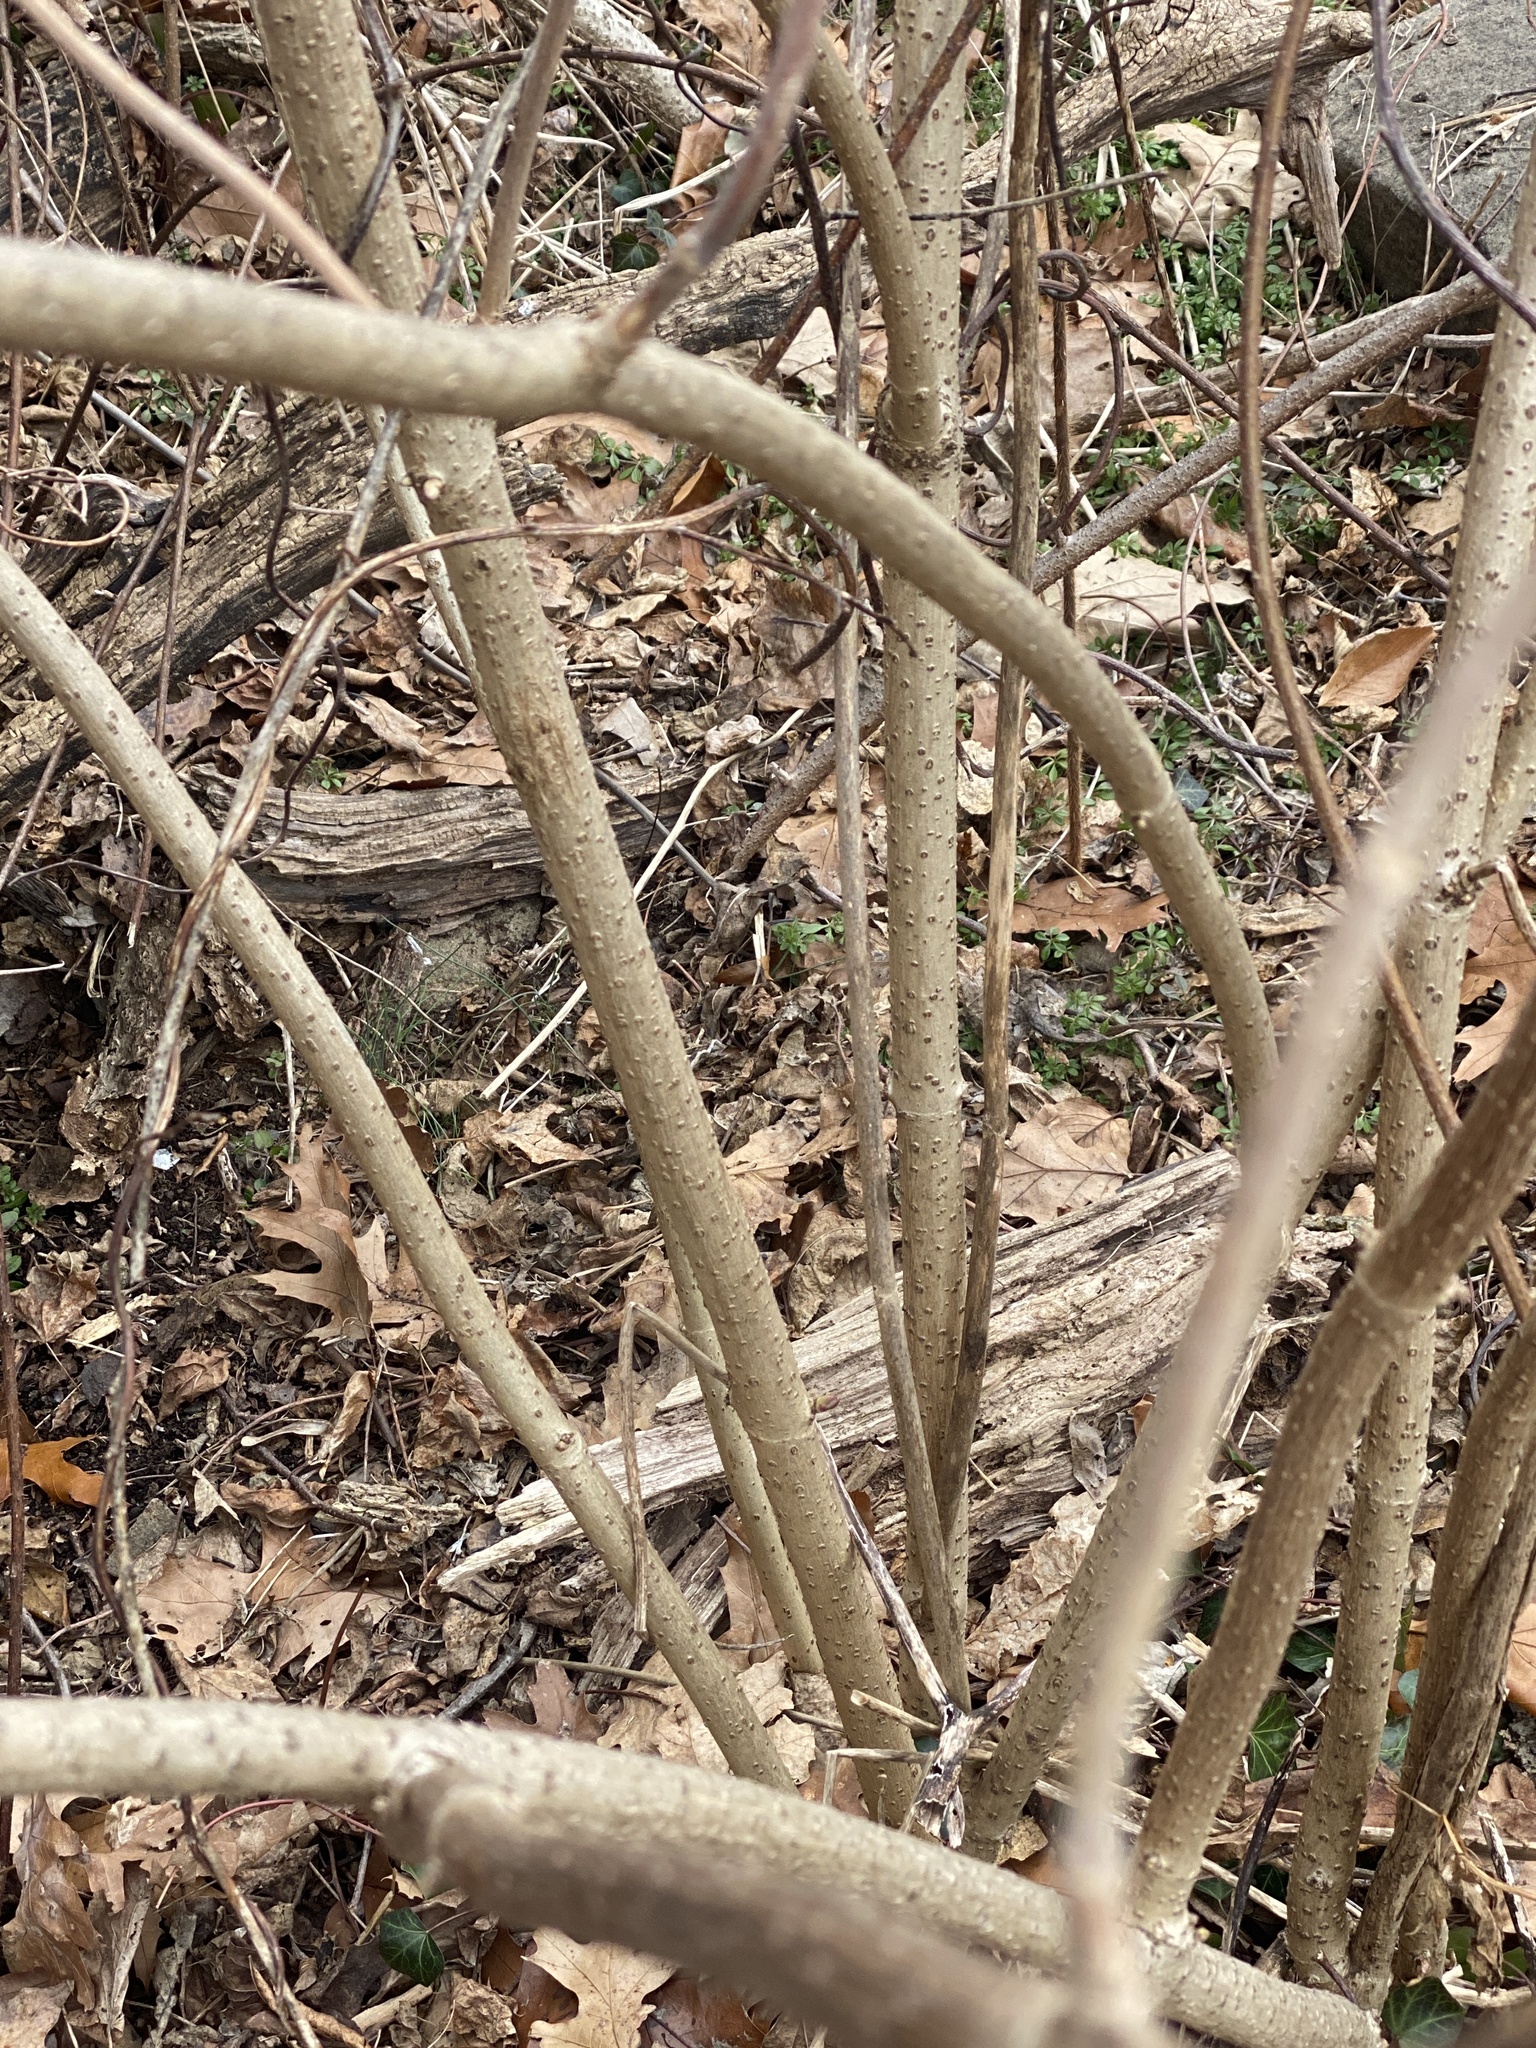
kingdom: Plantae
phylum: Tracheophyta
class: Magnoliopsida
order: Dipsacales
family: Viburnaceae
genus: Sambucus
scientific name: Sambucus racemosa
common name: Red-berried elder
